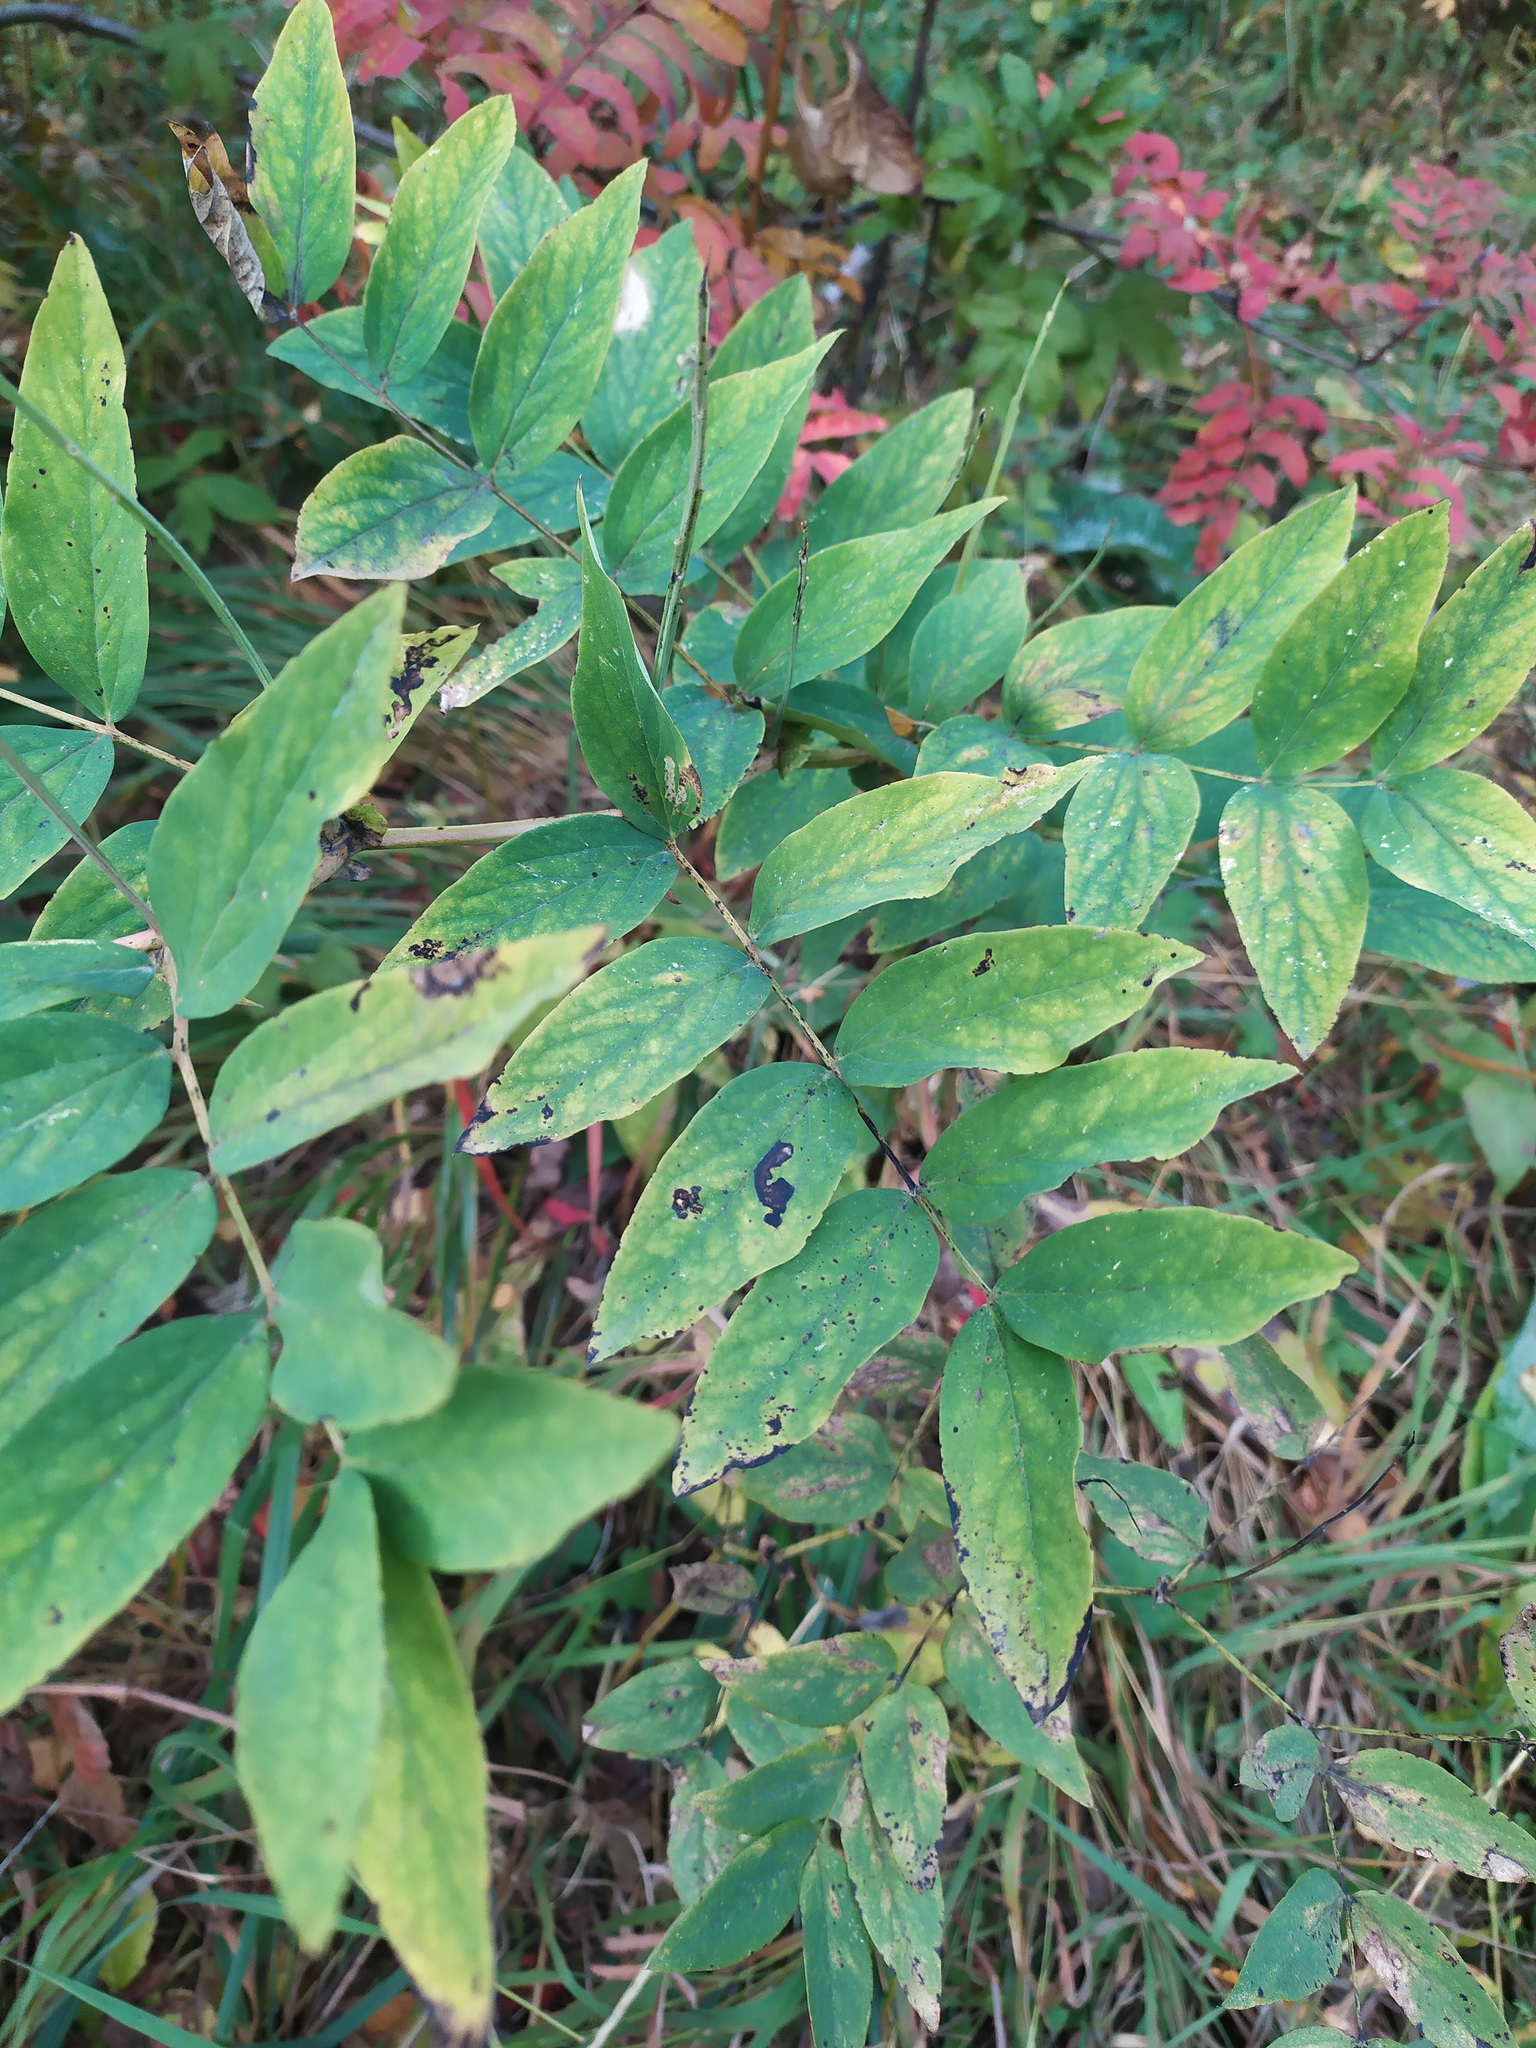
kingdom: Plantae
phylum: Tracheophyta
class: Magnoliopsida
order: Fabales
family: Fabaceae
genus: Lathyrus
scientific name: Lathyrus gmelinii
